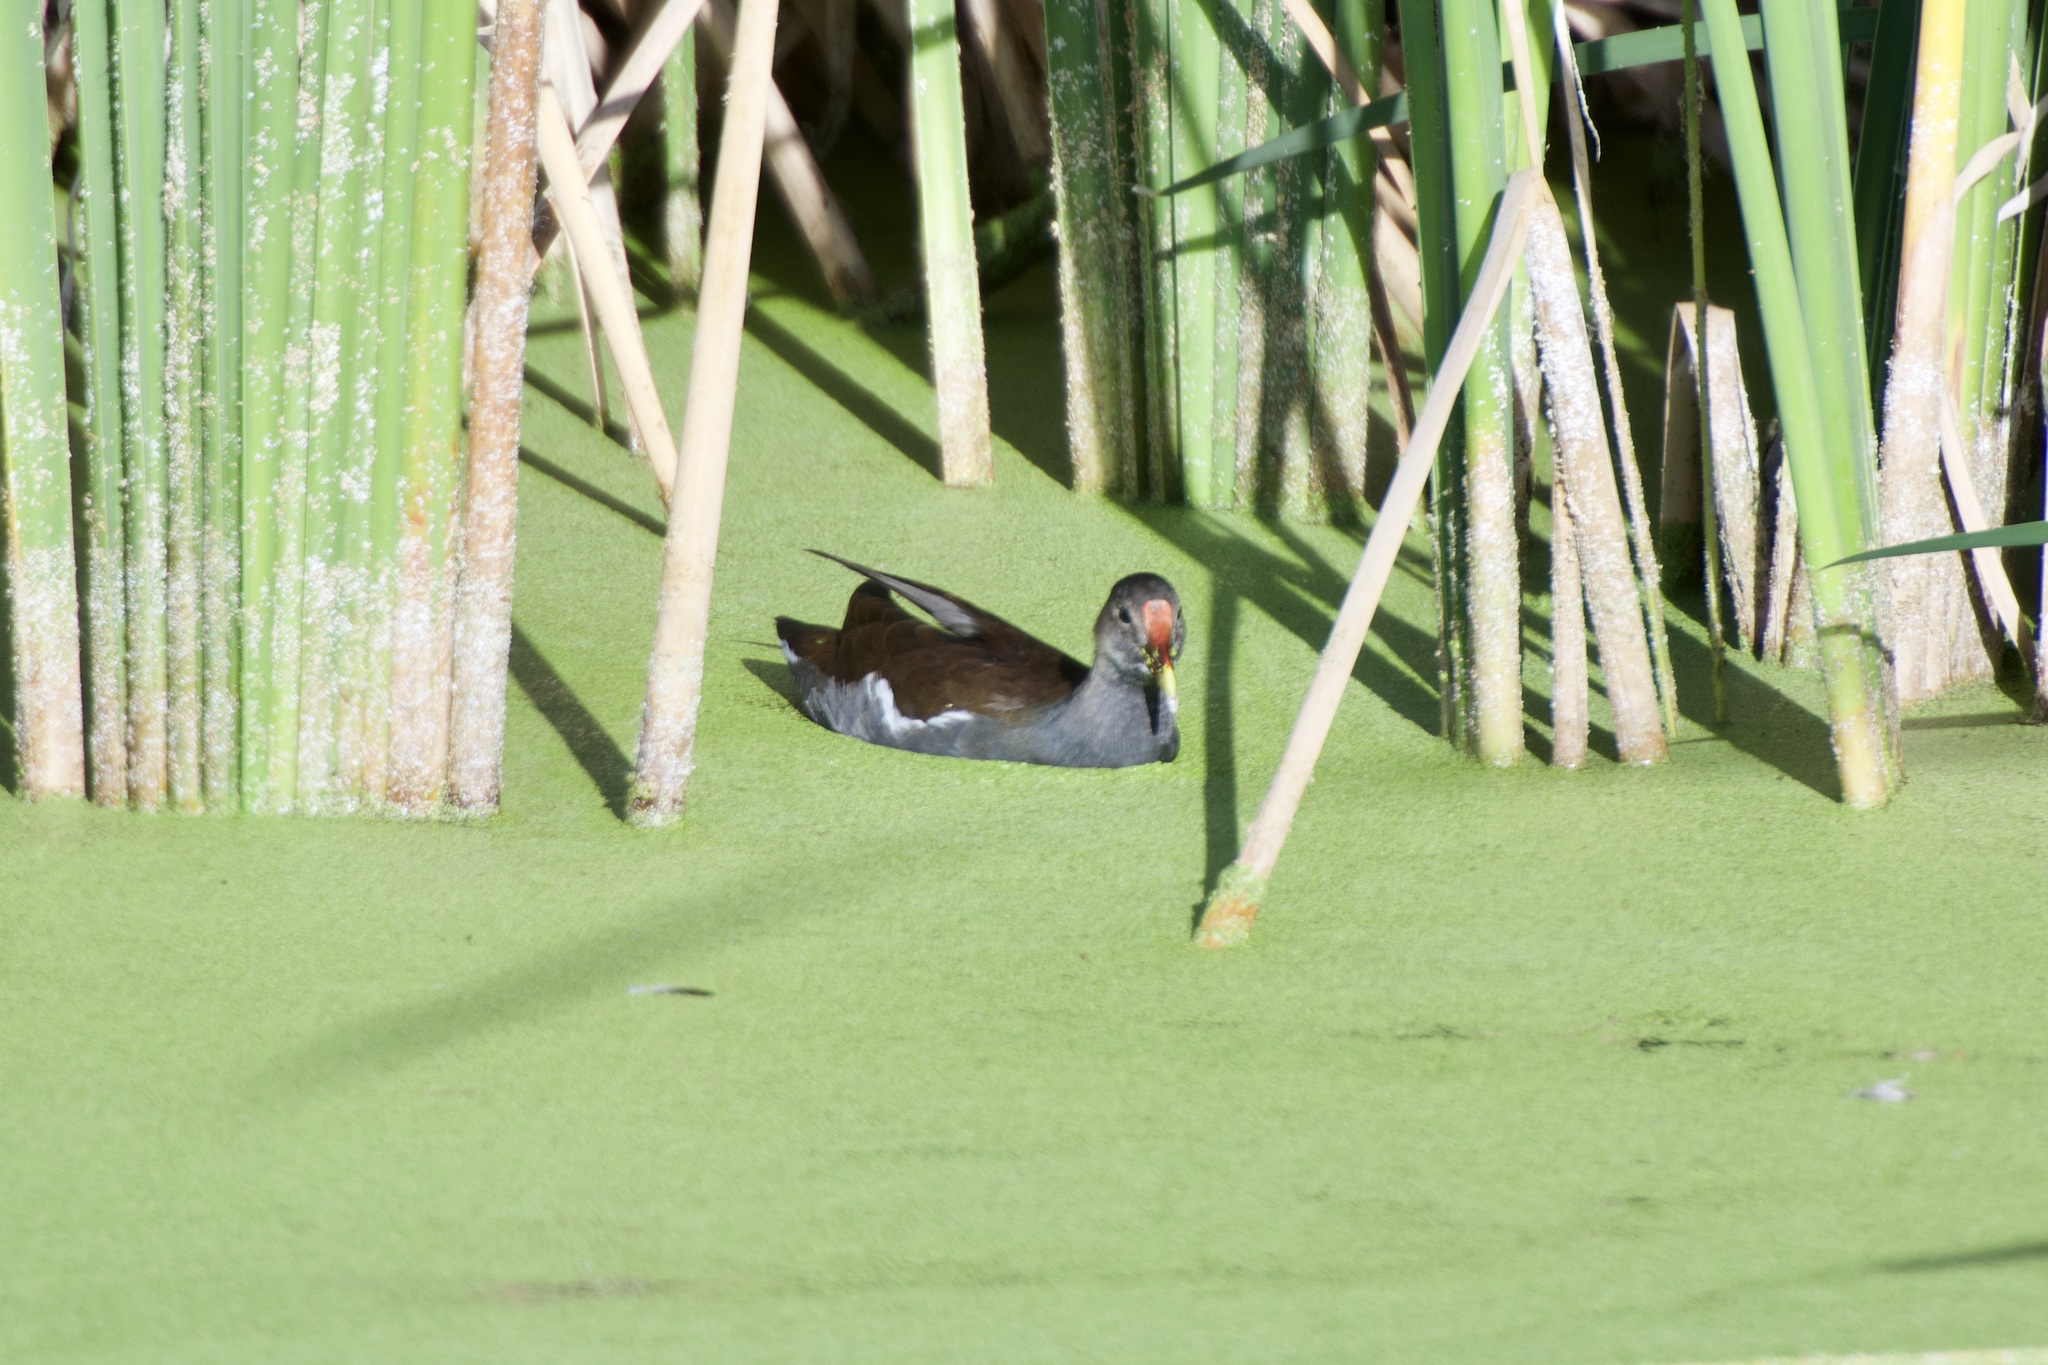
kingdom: Animalia
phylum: Chordata
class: Aves
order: Gruiformes
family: Rallidae
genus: Gallinula
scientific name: Gallinula chloropus
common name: Common moorhen
